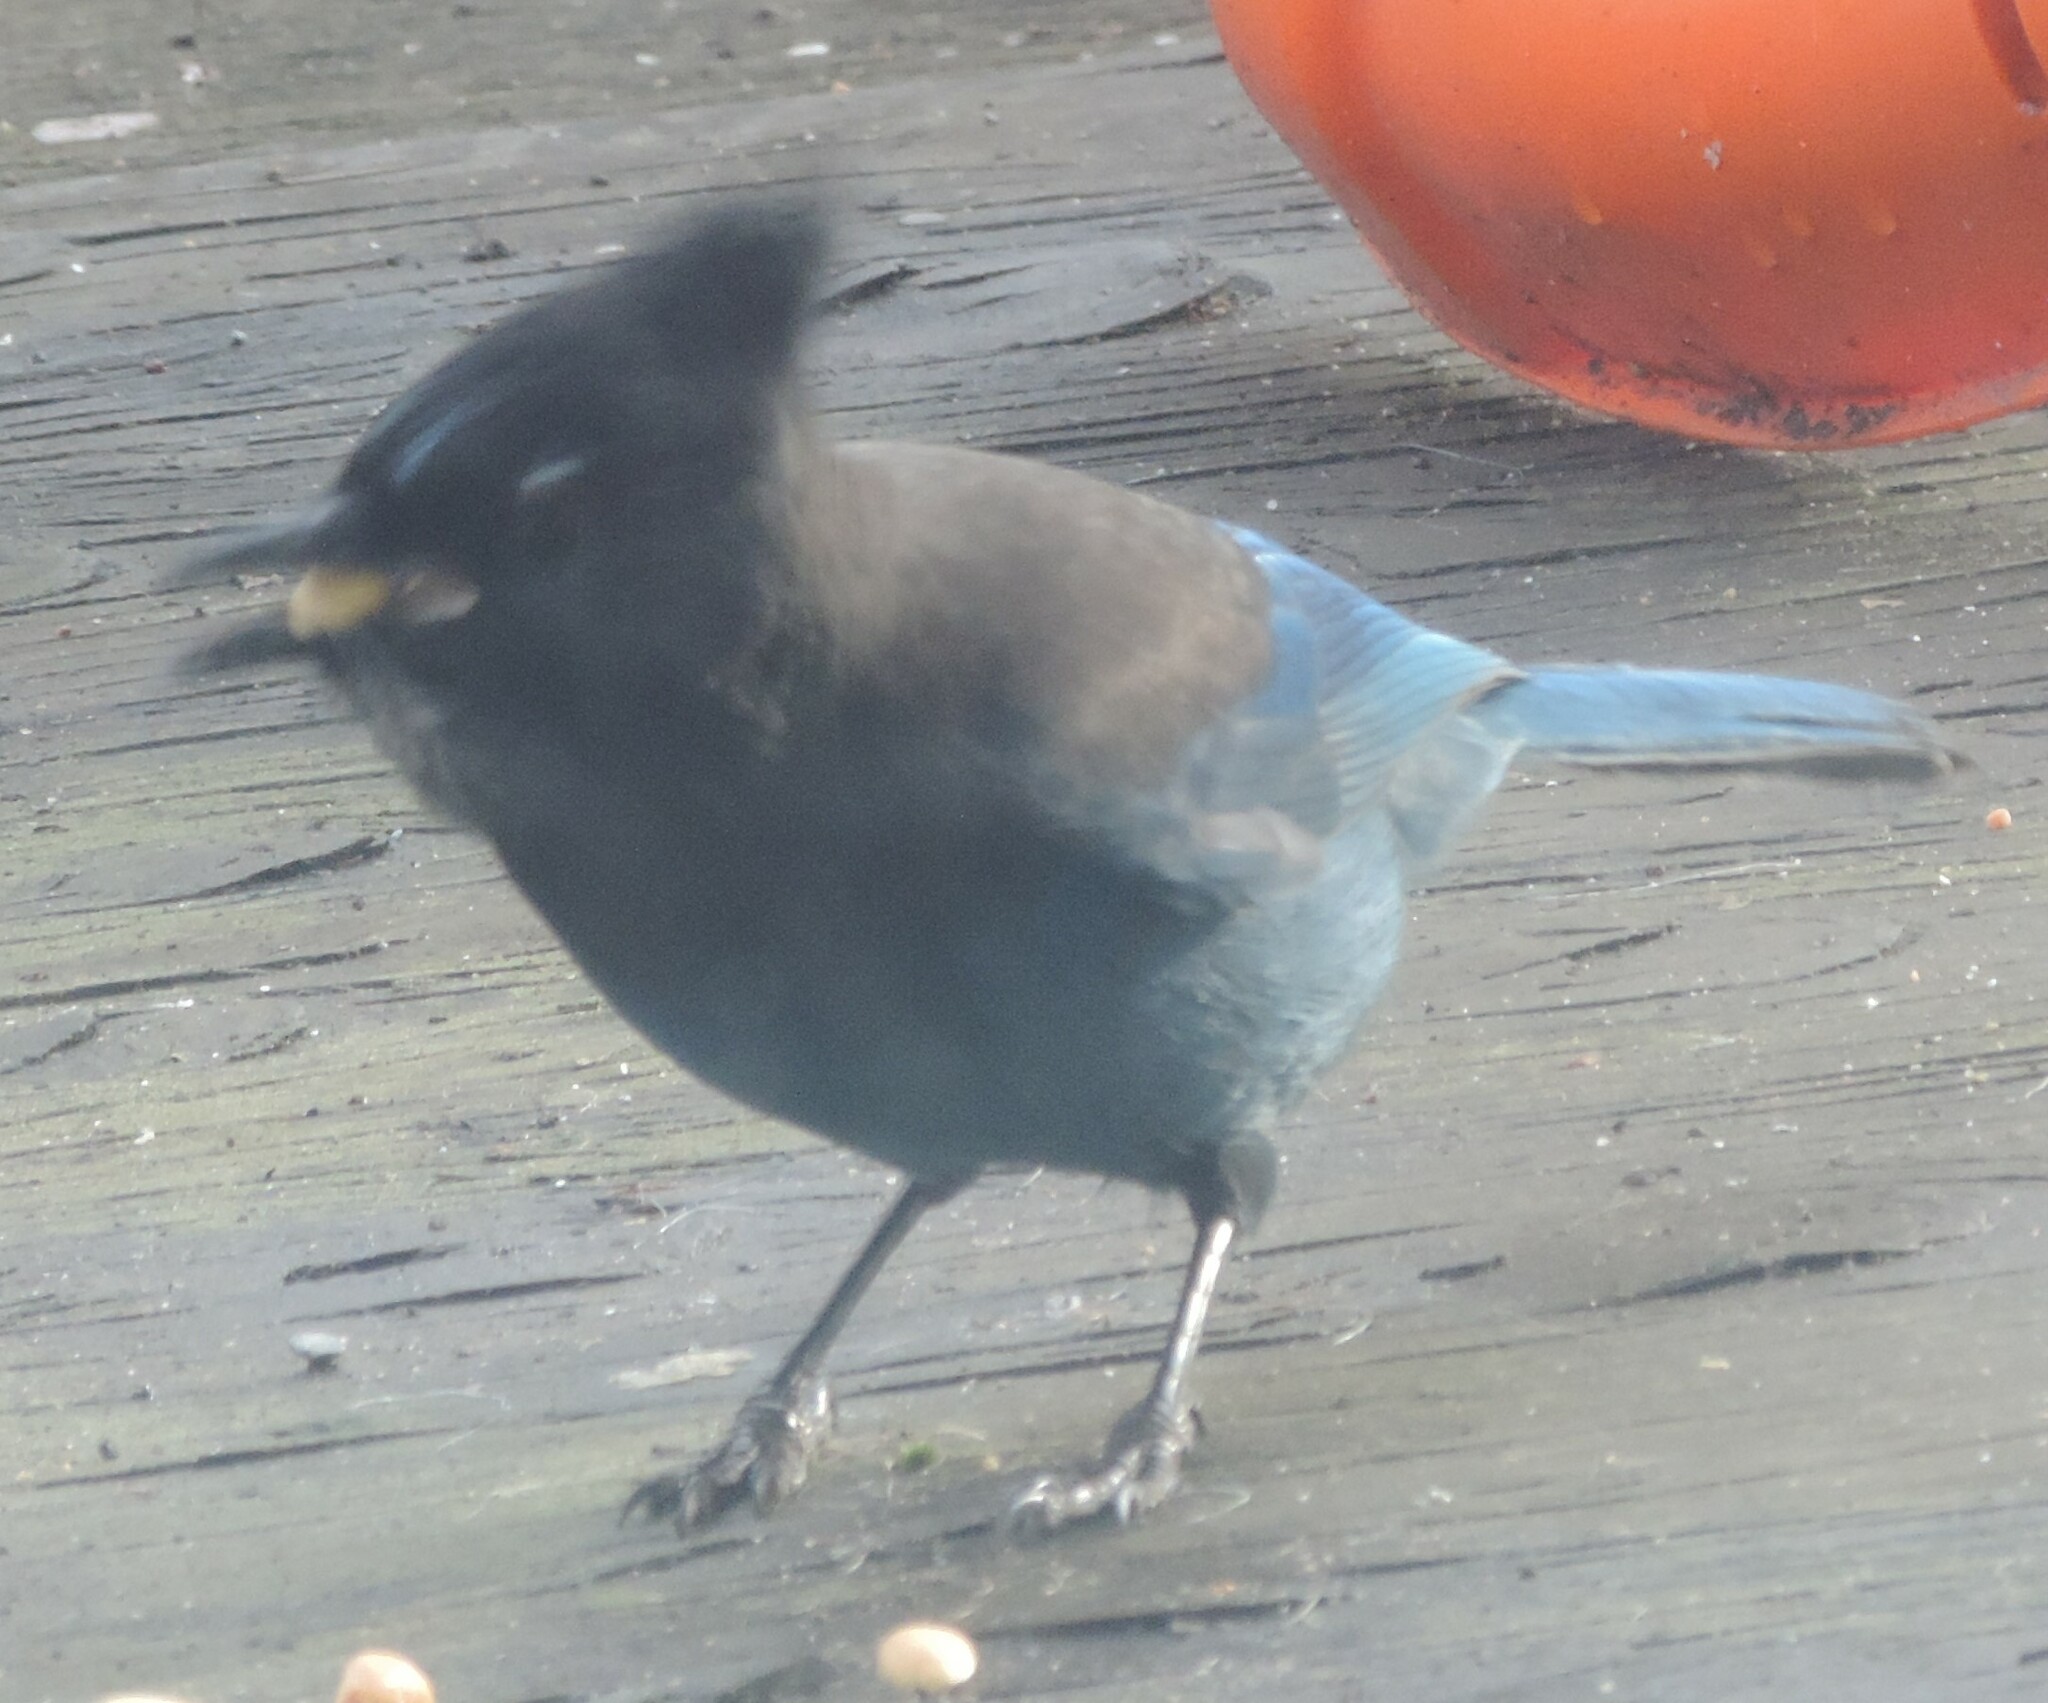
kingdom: Animalia
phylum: Chordata
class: Aves
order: Passeriformes
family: Corvidae
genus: Cyanocitta
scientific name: Cyanocitta stelleri
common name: Steller's jay
